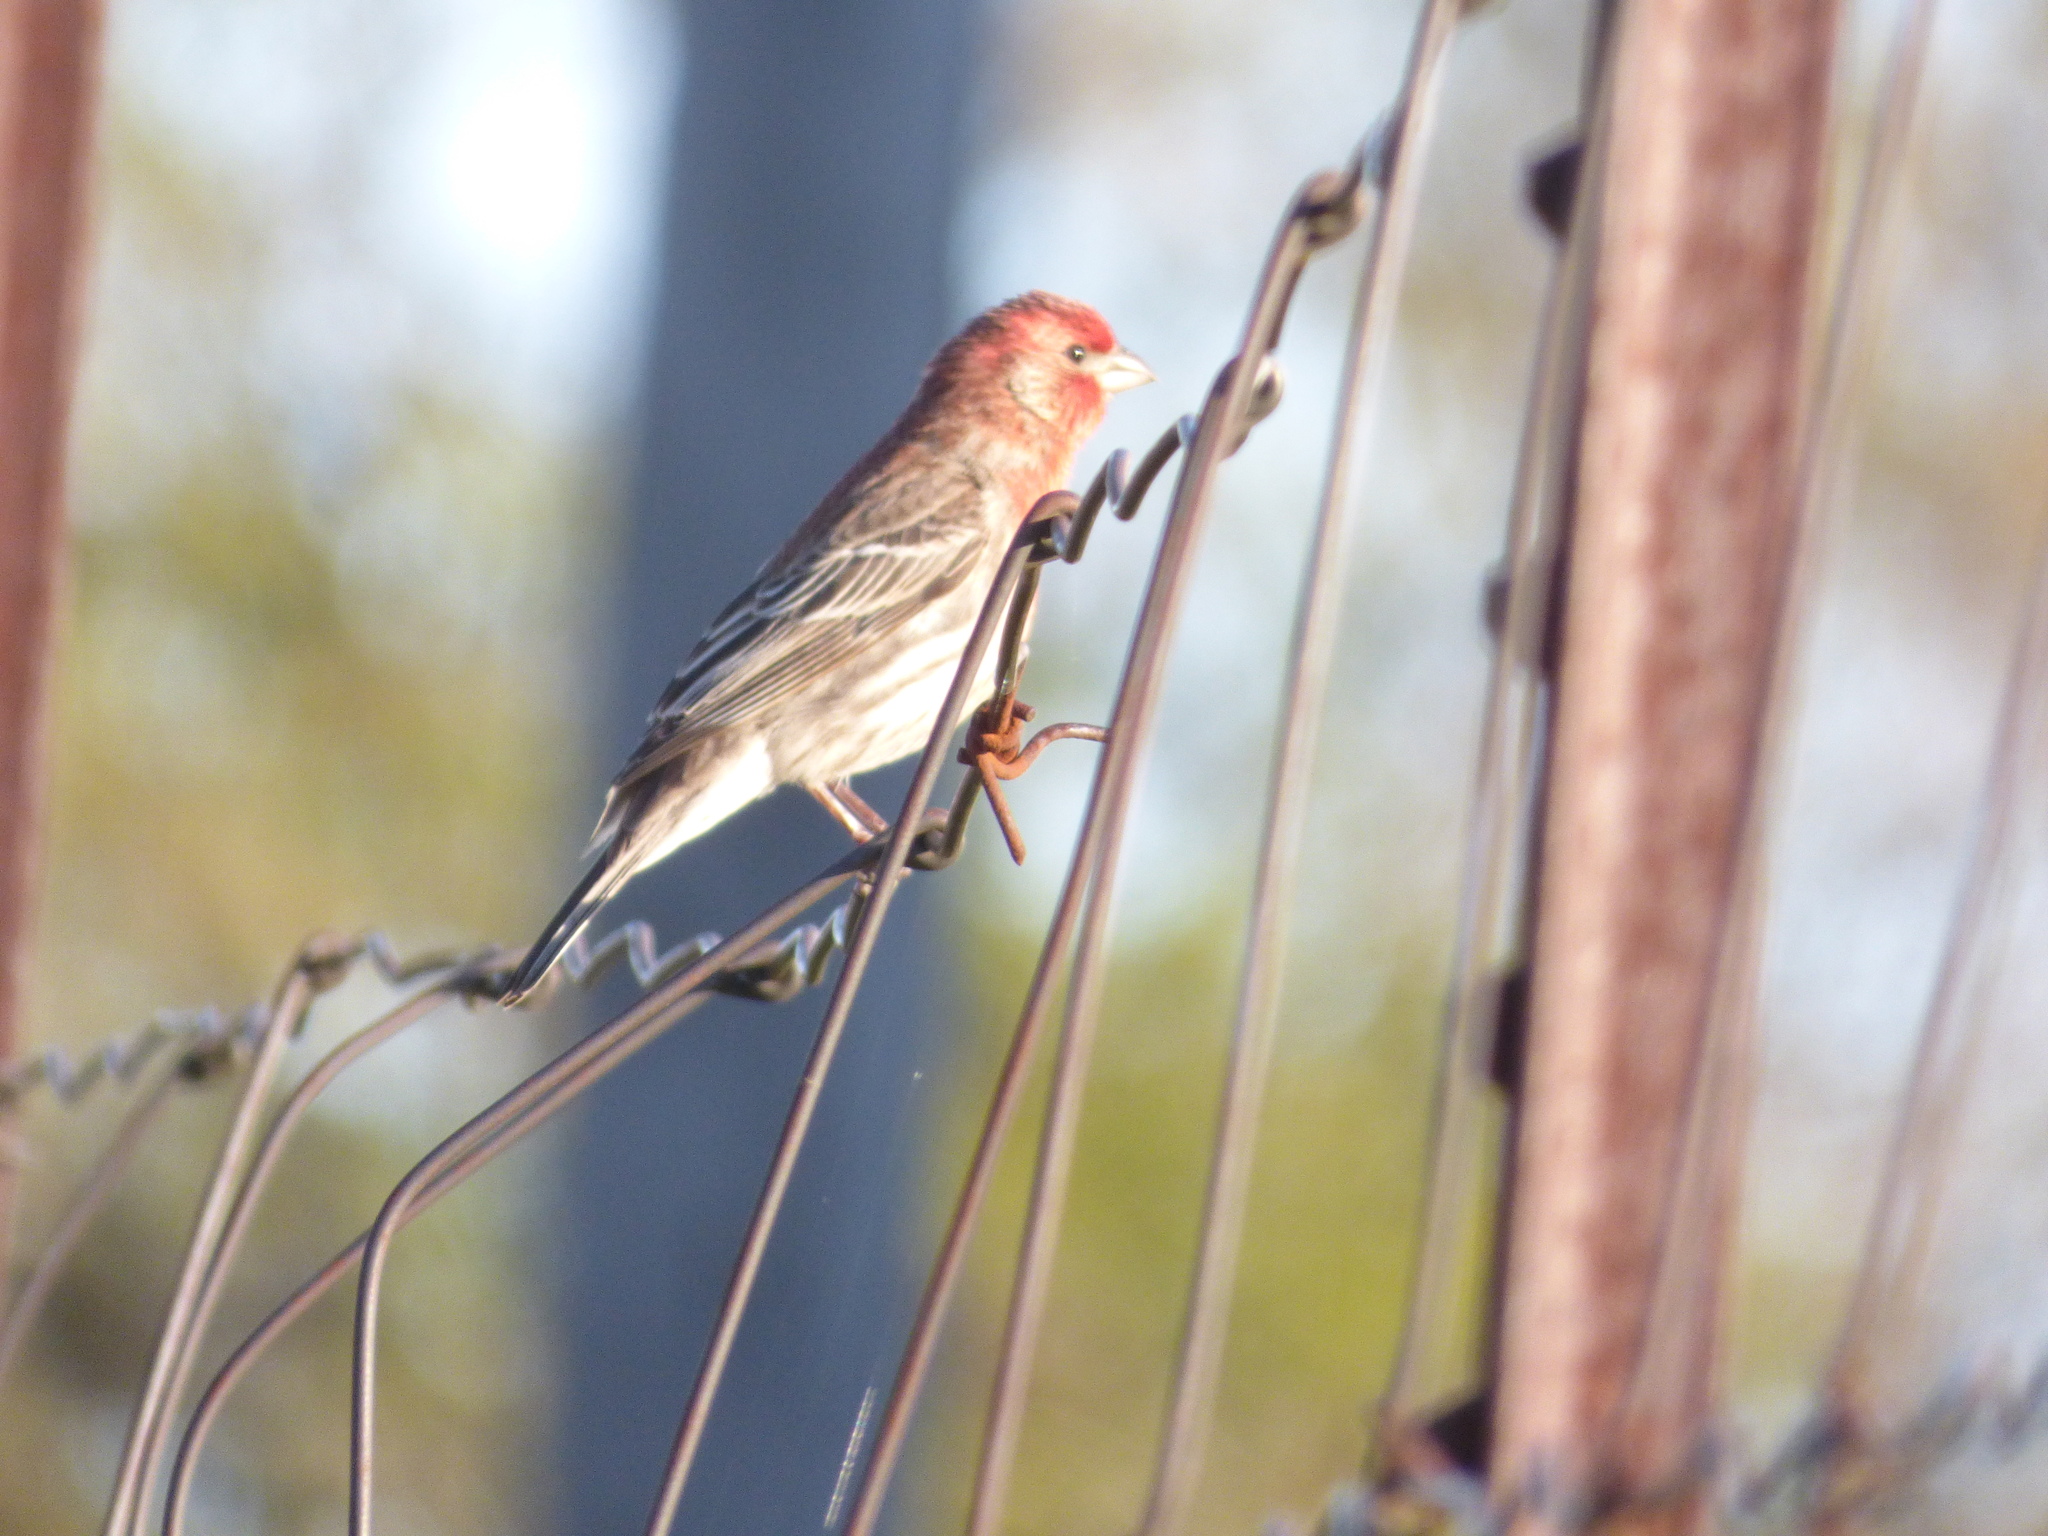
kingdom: Animalia
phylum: Chordata
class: Aves
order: Passeriformes
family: Fringillidae
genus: Haemorhous
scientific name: Haemorhous mexicanus
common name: House finch
